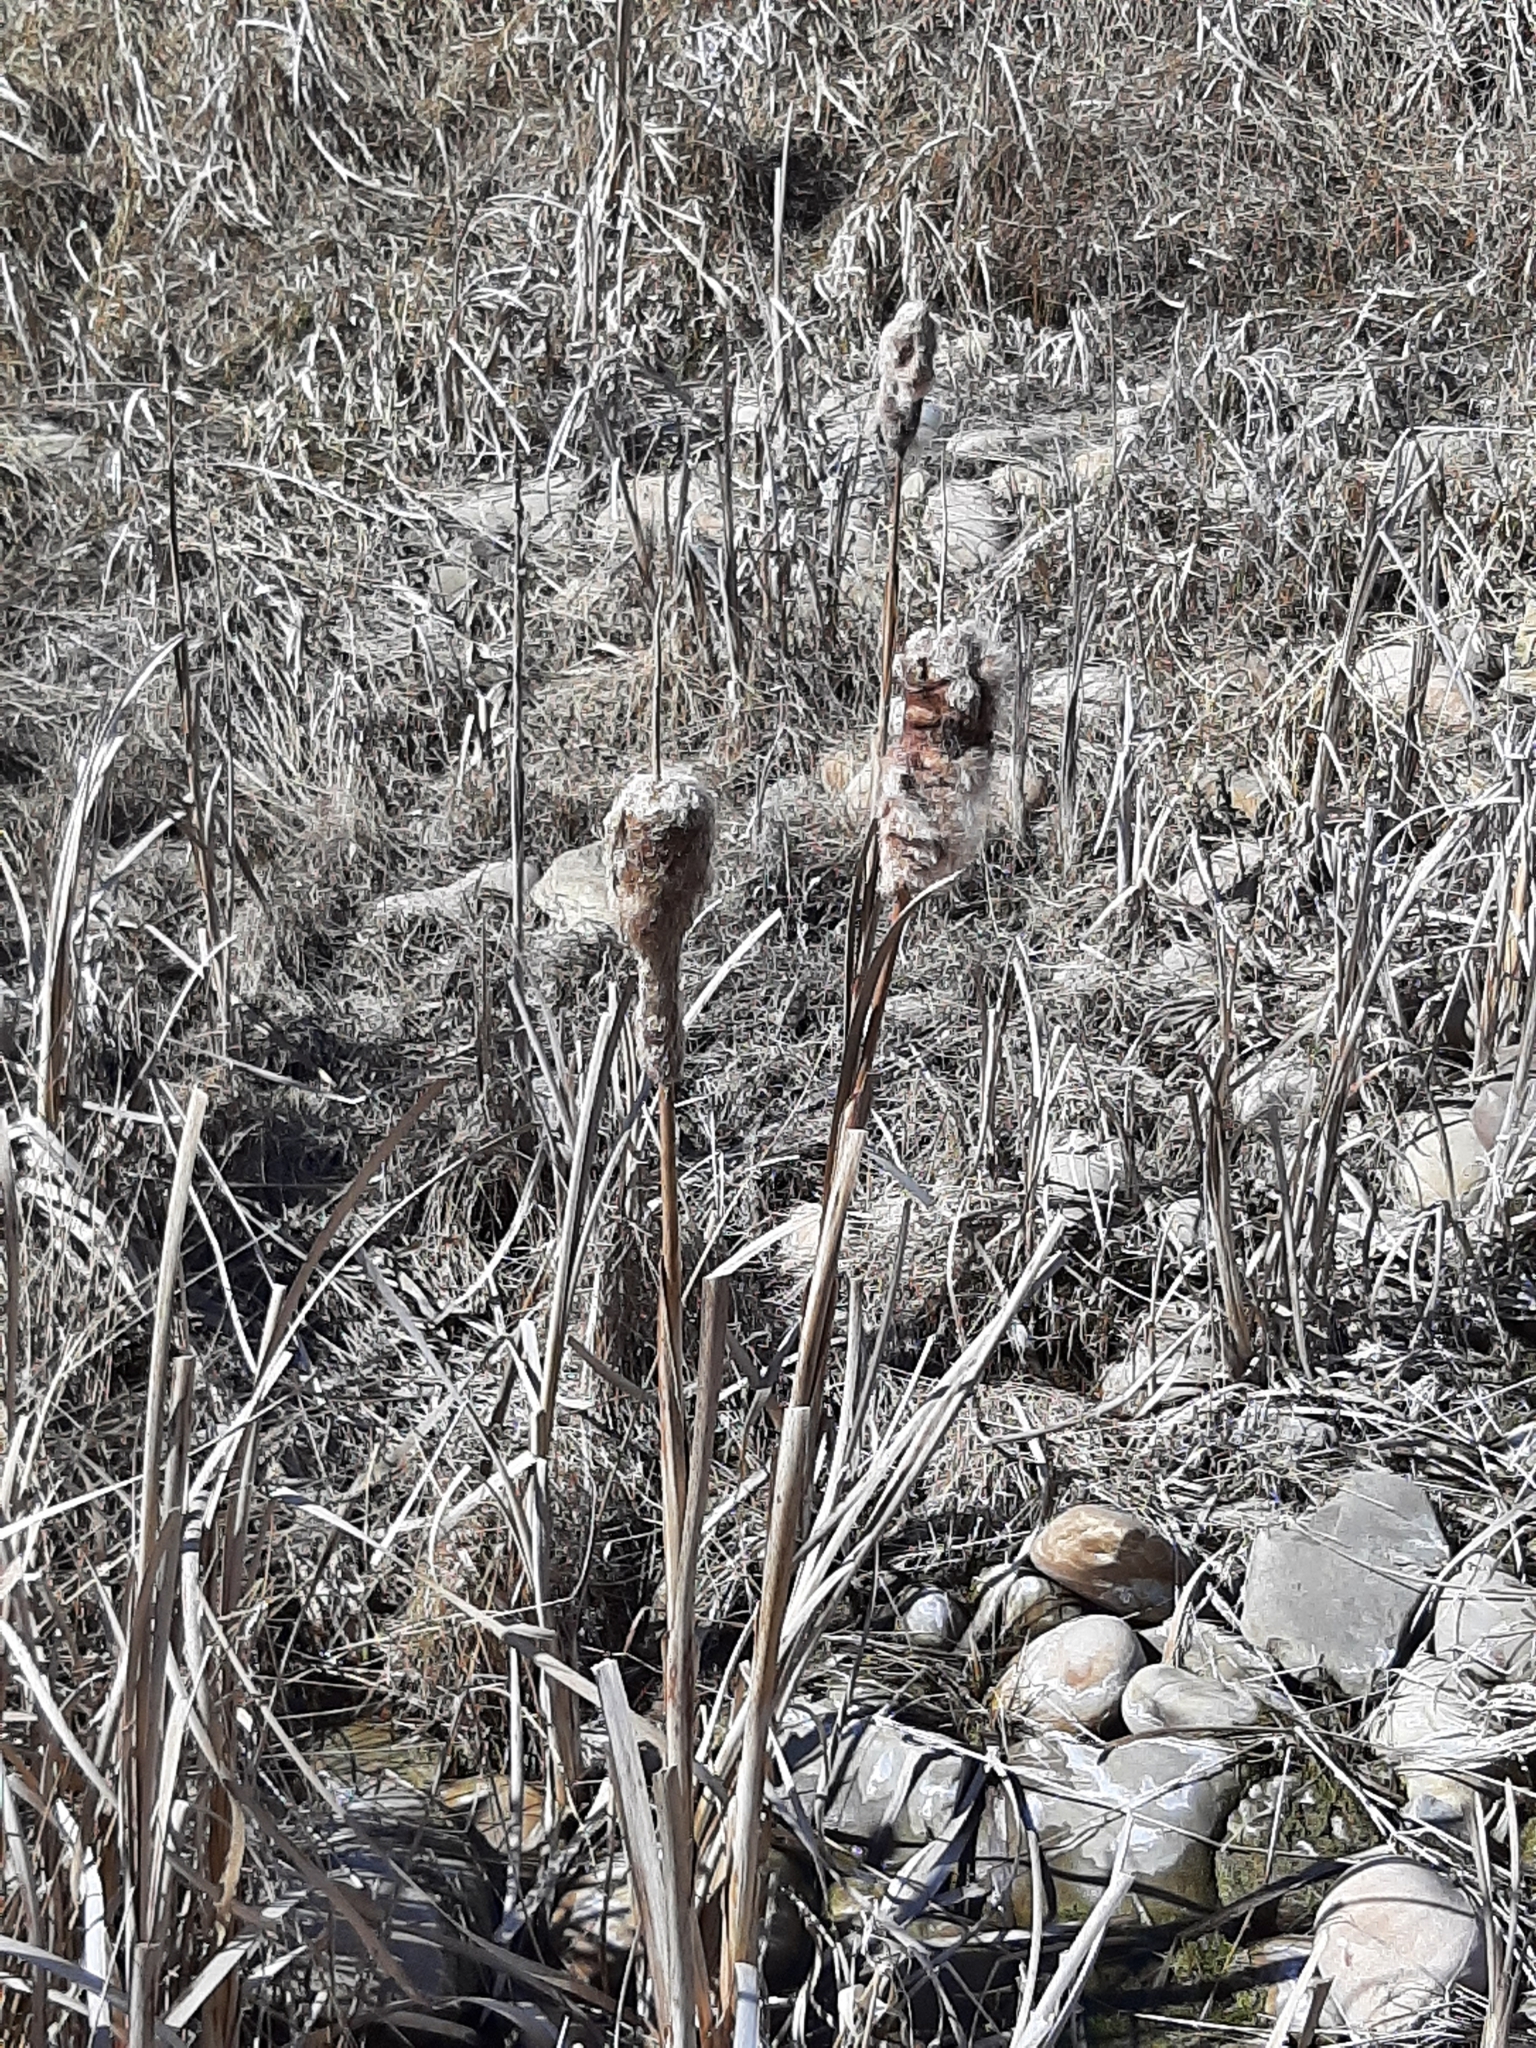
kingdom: Plantae
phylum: Tracheophyta
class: Liliopsida
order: Poales
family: Typhaceae
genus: Typha
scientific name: Typha latifolia
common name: Broadleaf cattail
